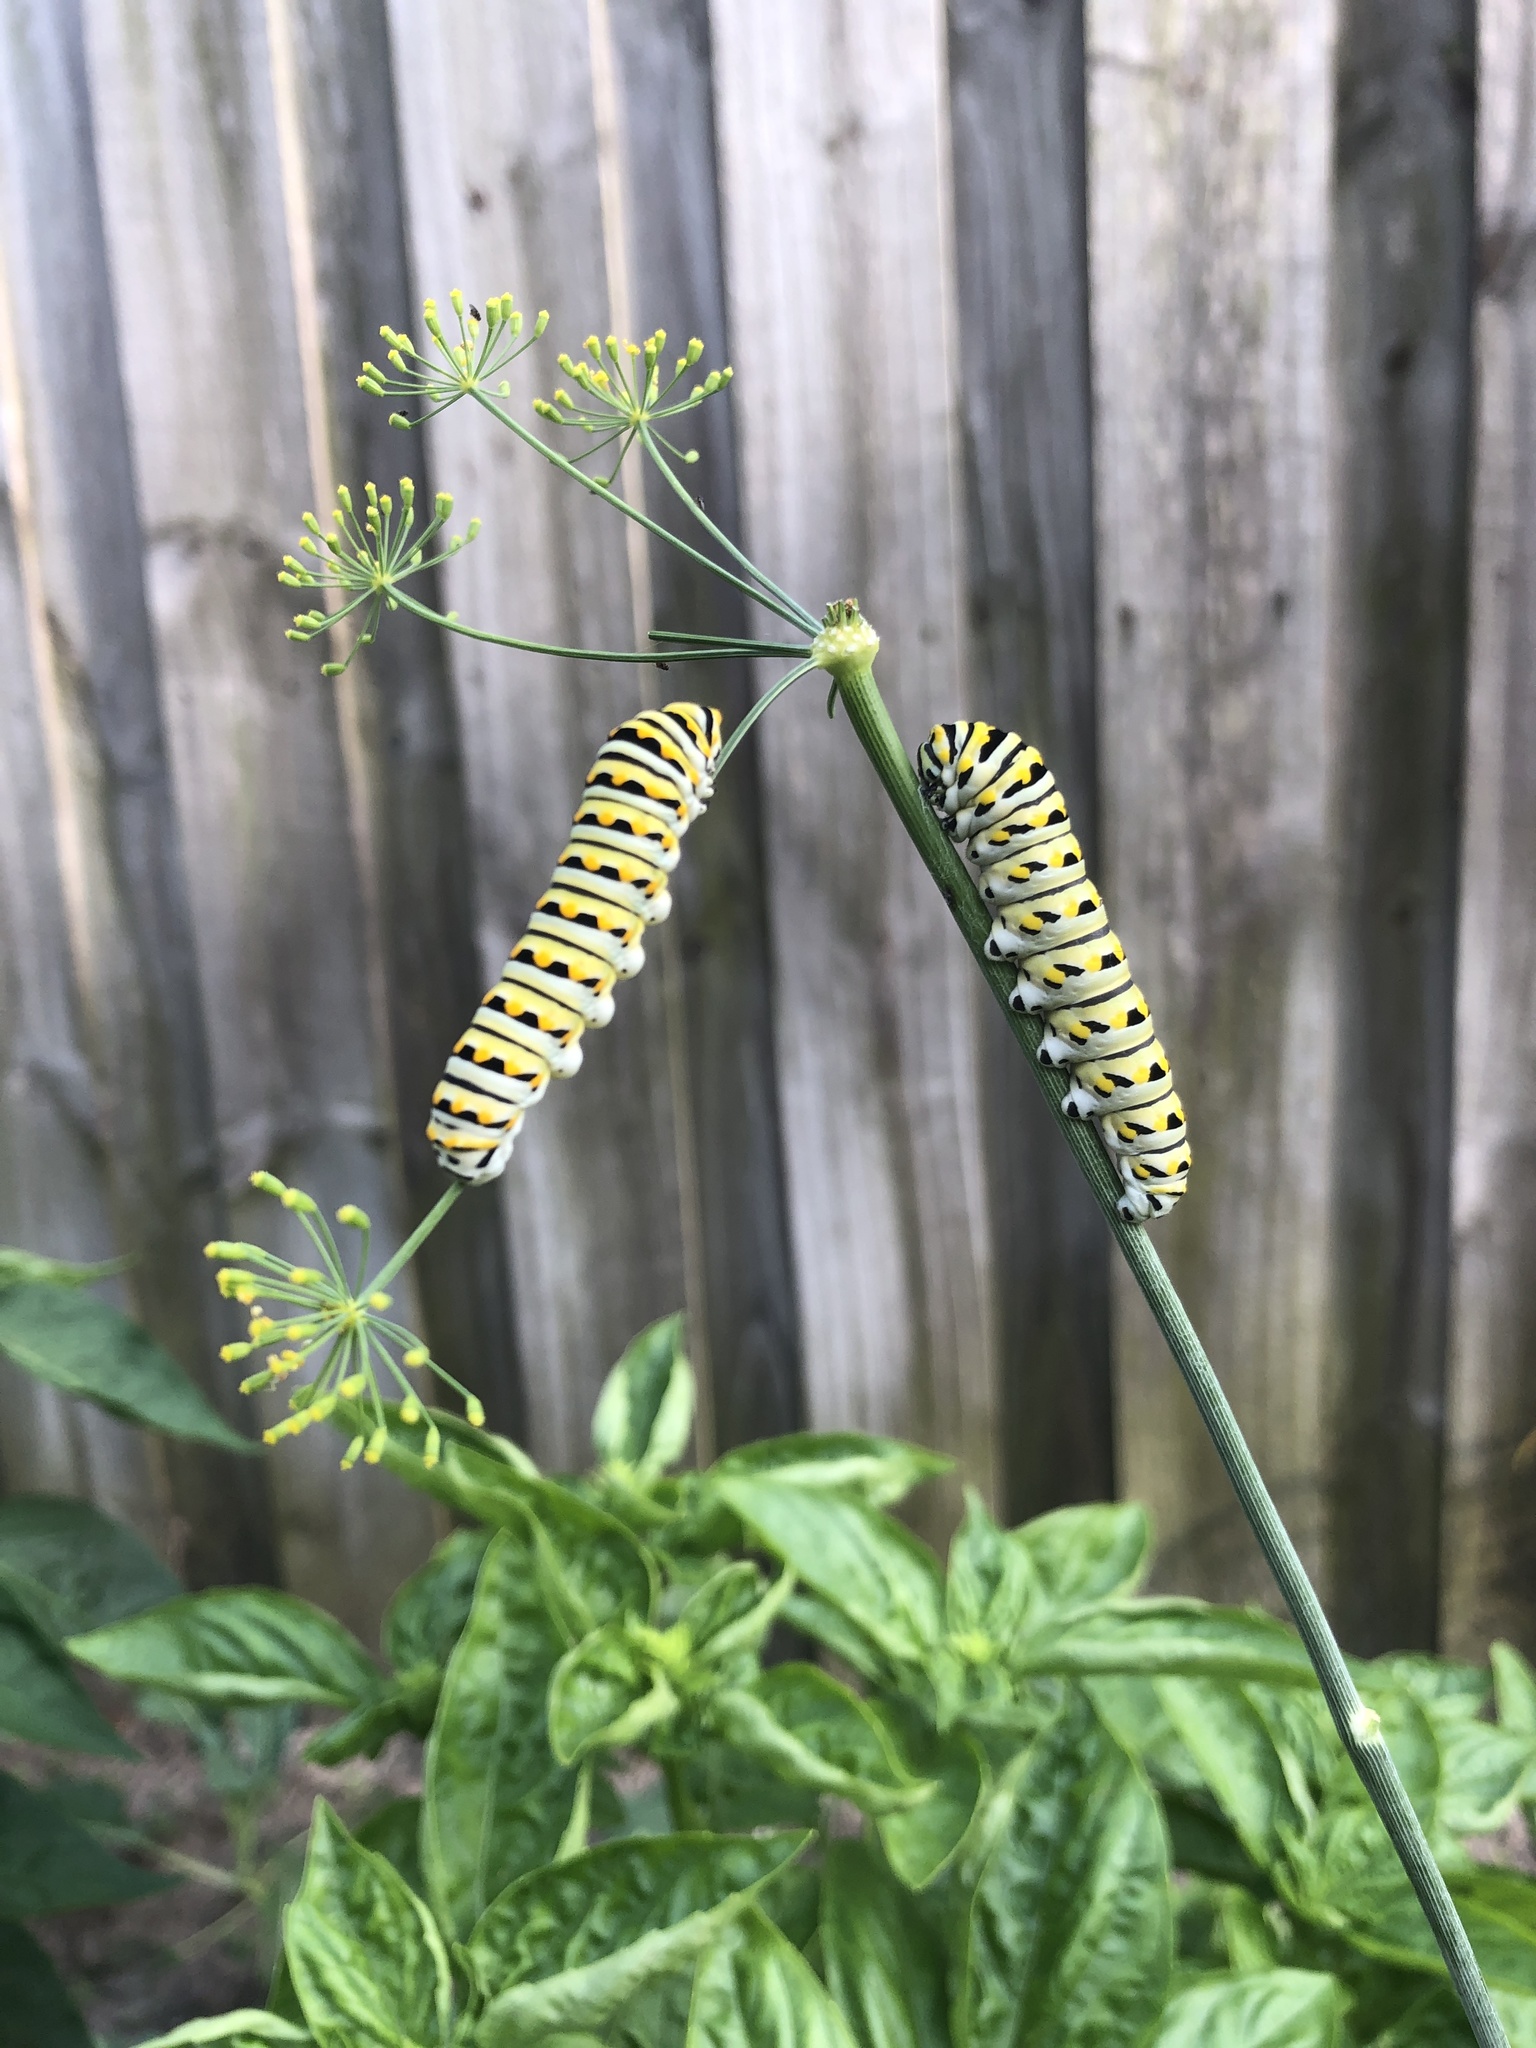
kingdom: Animalia
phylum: Arthropoda
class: Insecta
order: Lepidoptera
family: Papilionidae
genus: Papilio
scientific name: Papilio polyxenes
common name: Black swallowtail
